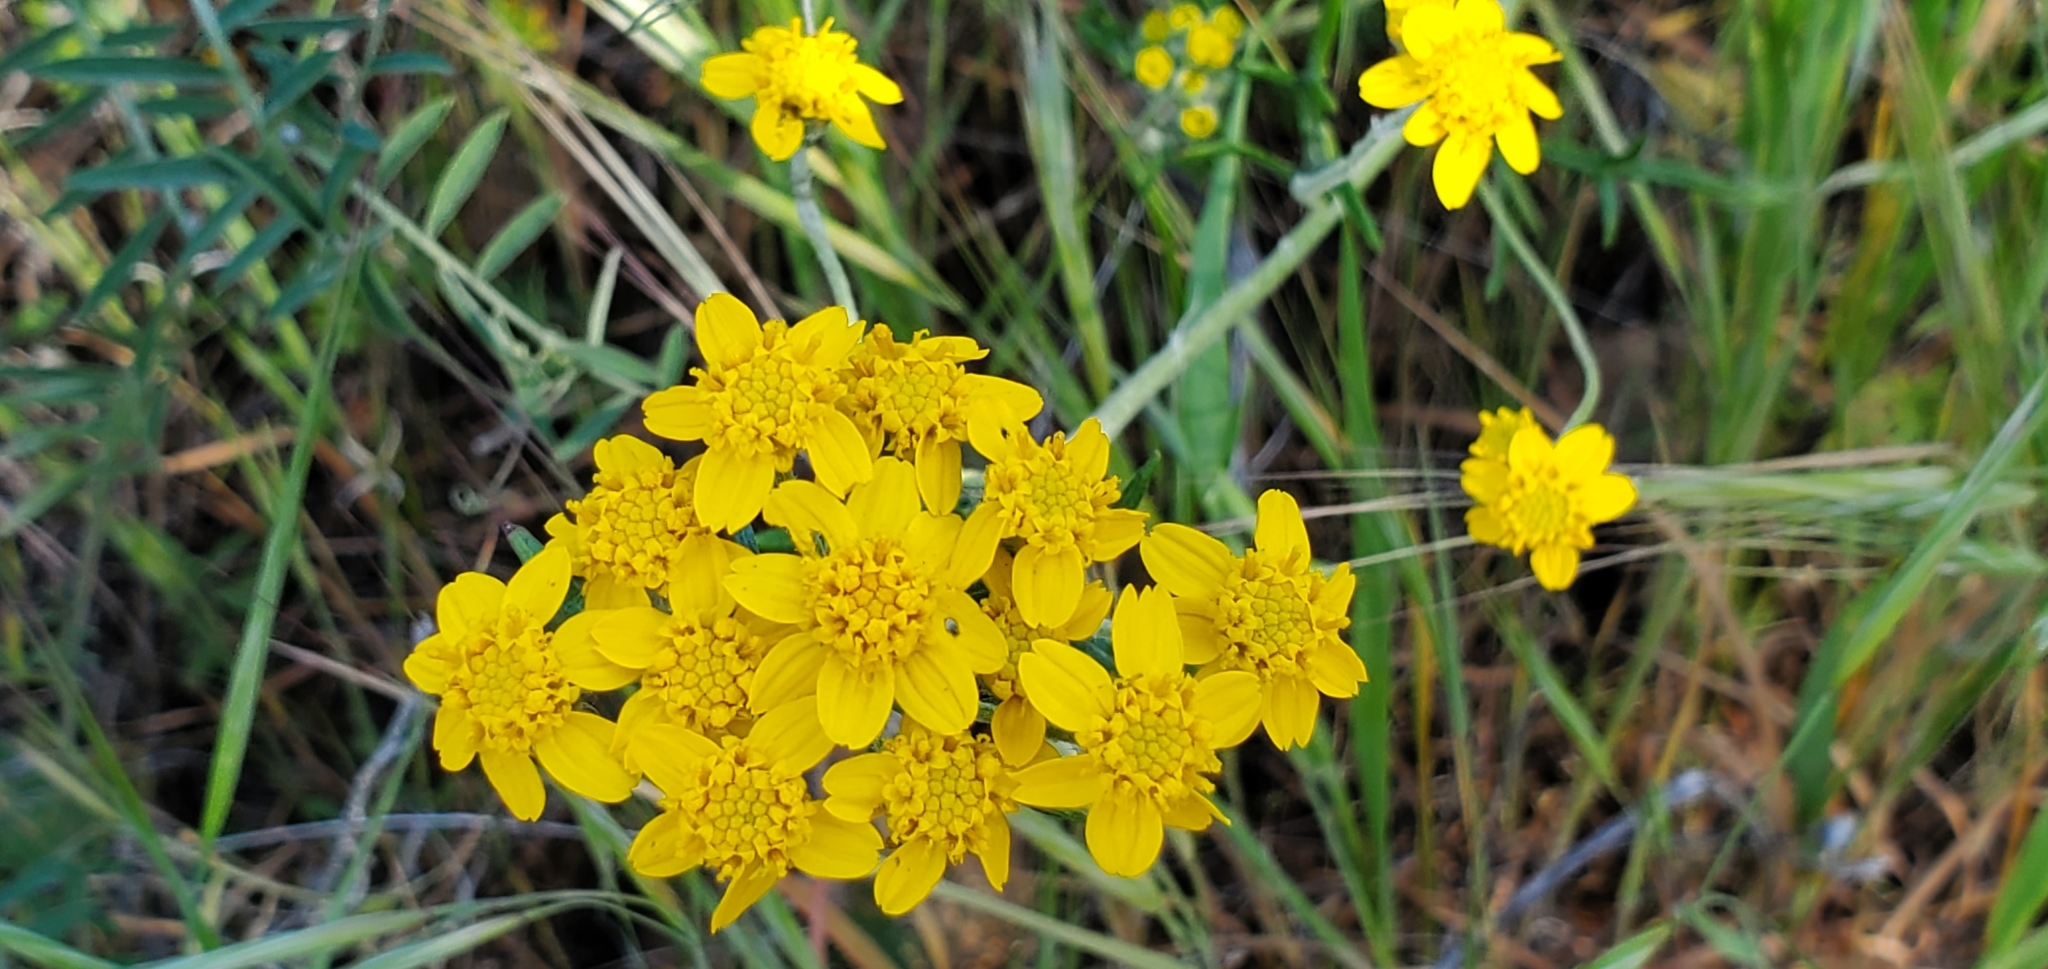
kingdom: Plantae
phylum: Tracheophyta
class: Magnoliopsida
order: Asterales
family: Asteraceae
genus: Eriophyllum
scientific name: Eriophyllum confertiflorum
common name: Golden-yarrow
